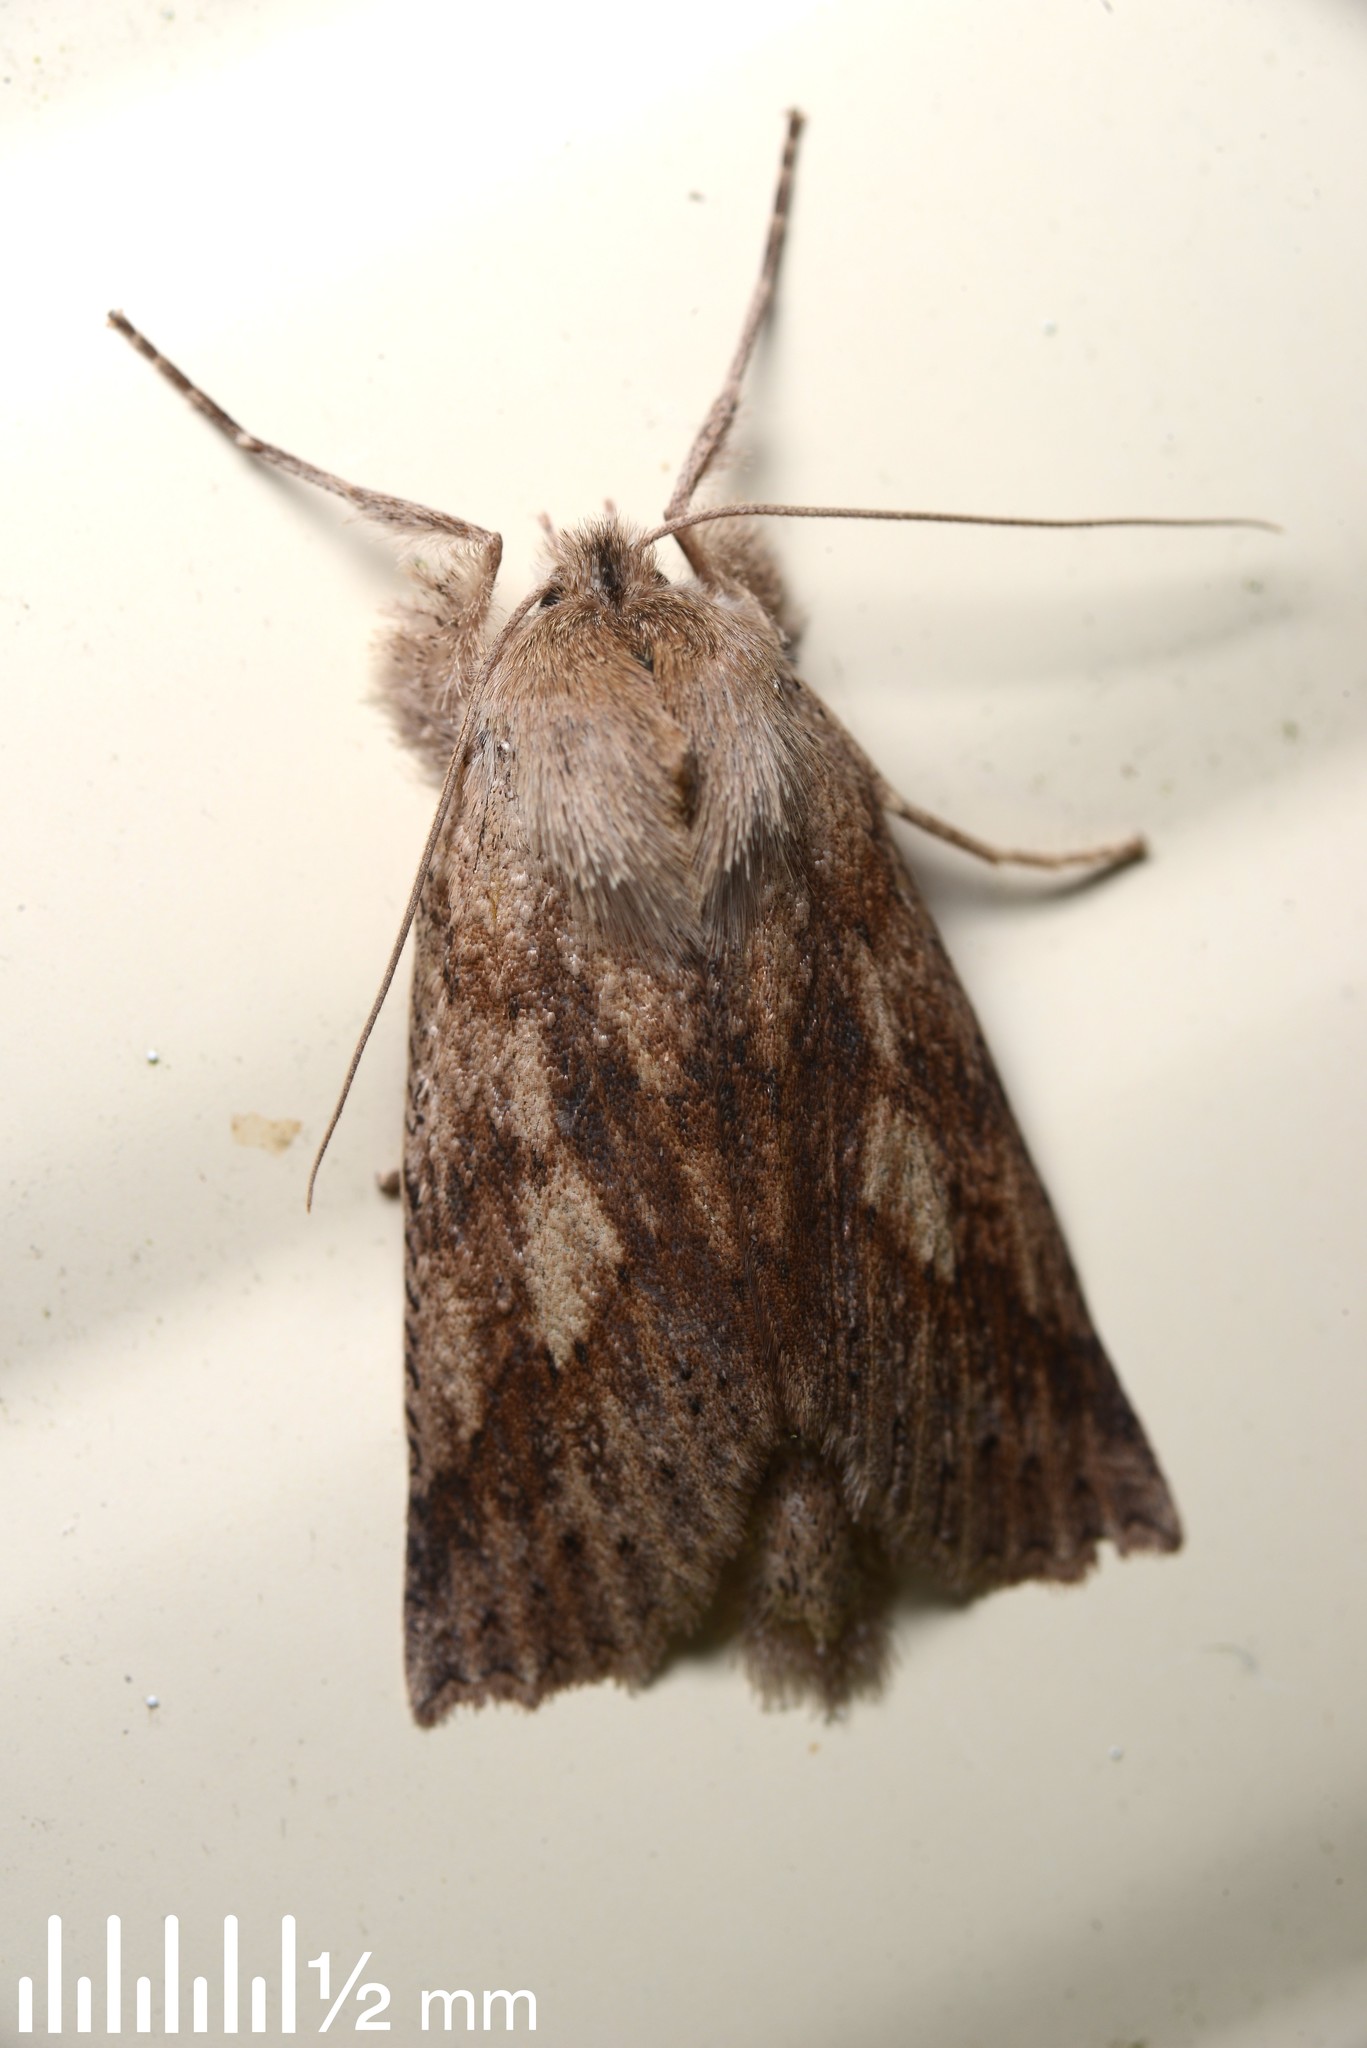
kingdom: Animalia
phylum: Arthropoda
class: Insecta
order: Lepidoptera
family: Geometridae
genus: Declana
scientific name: Declana leptomera
